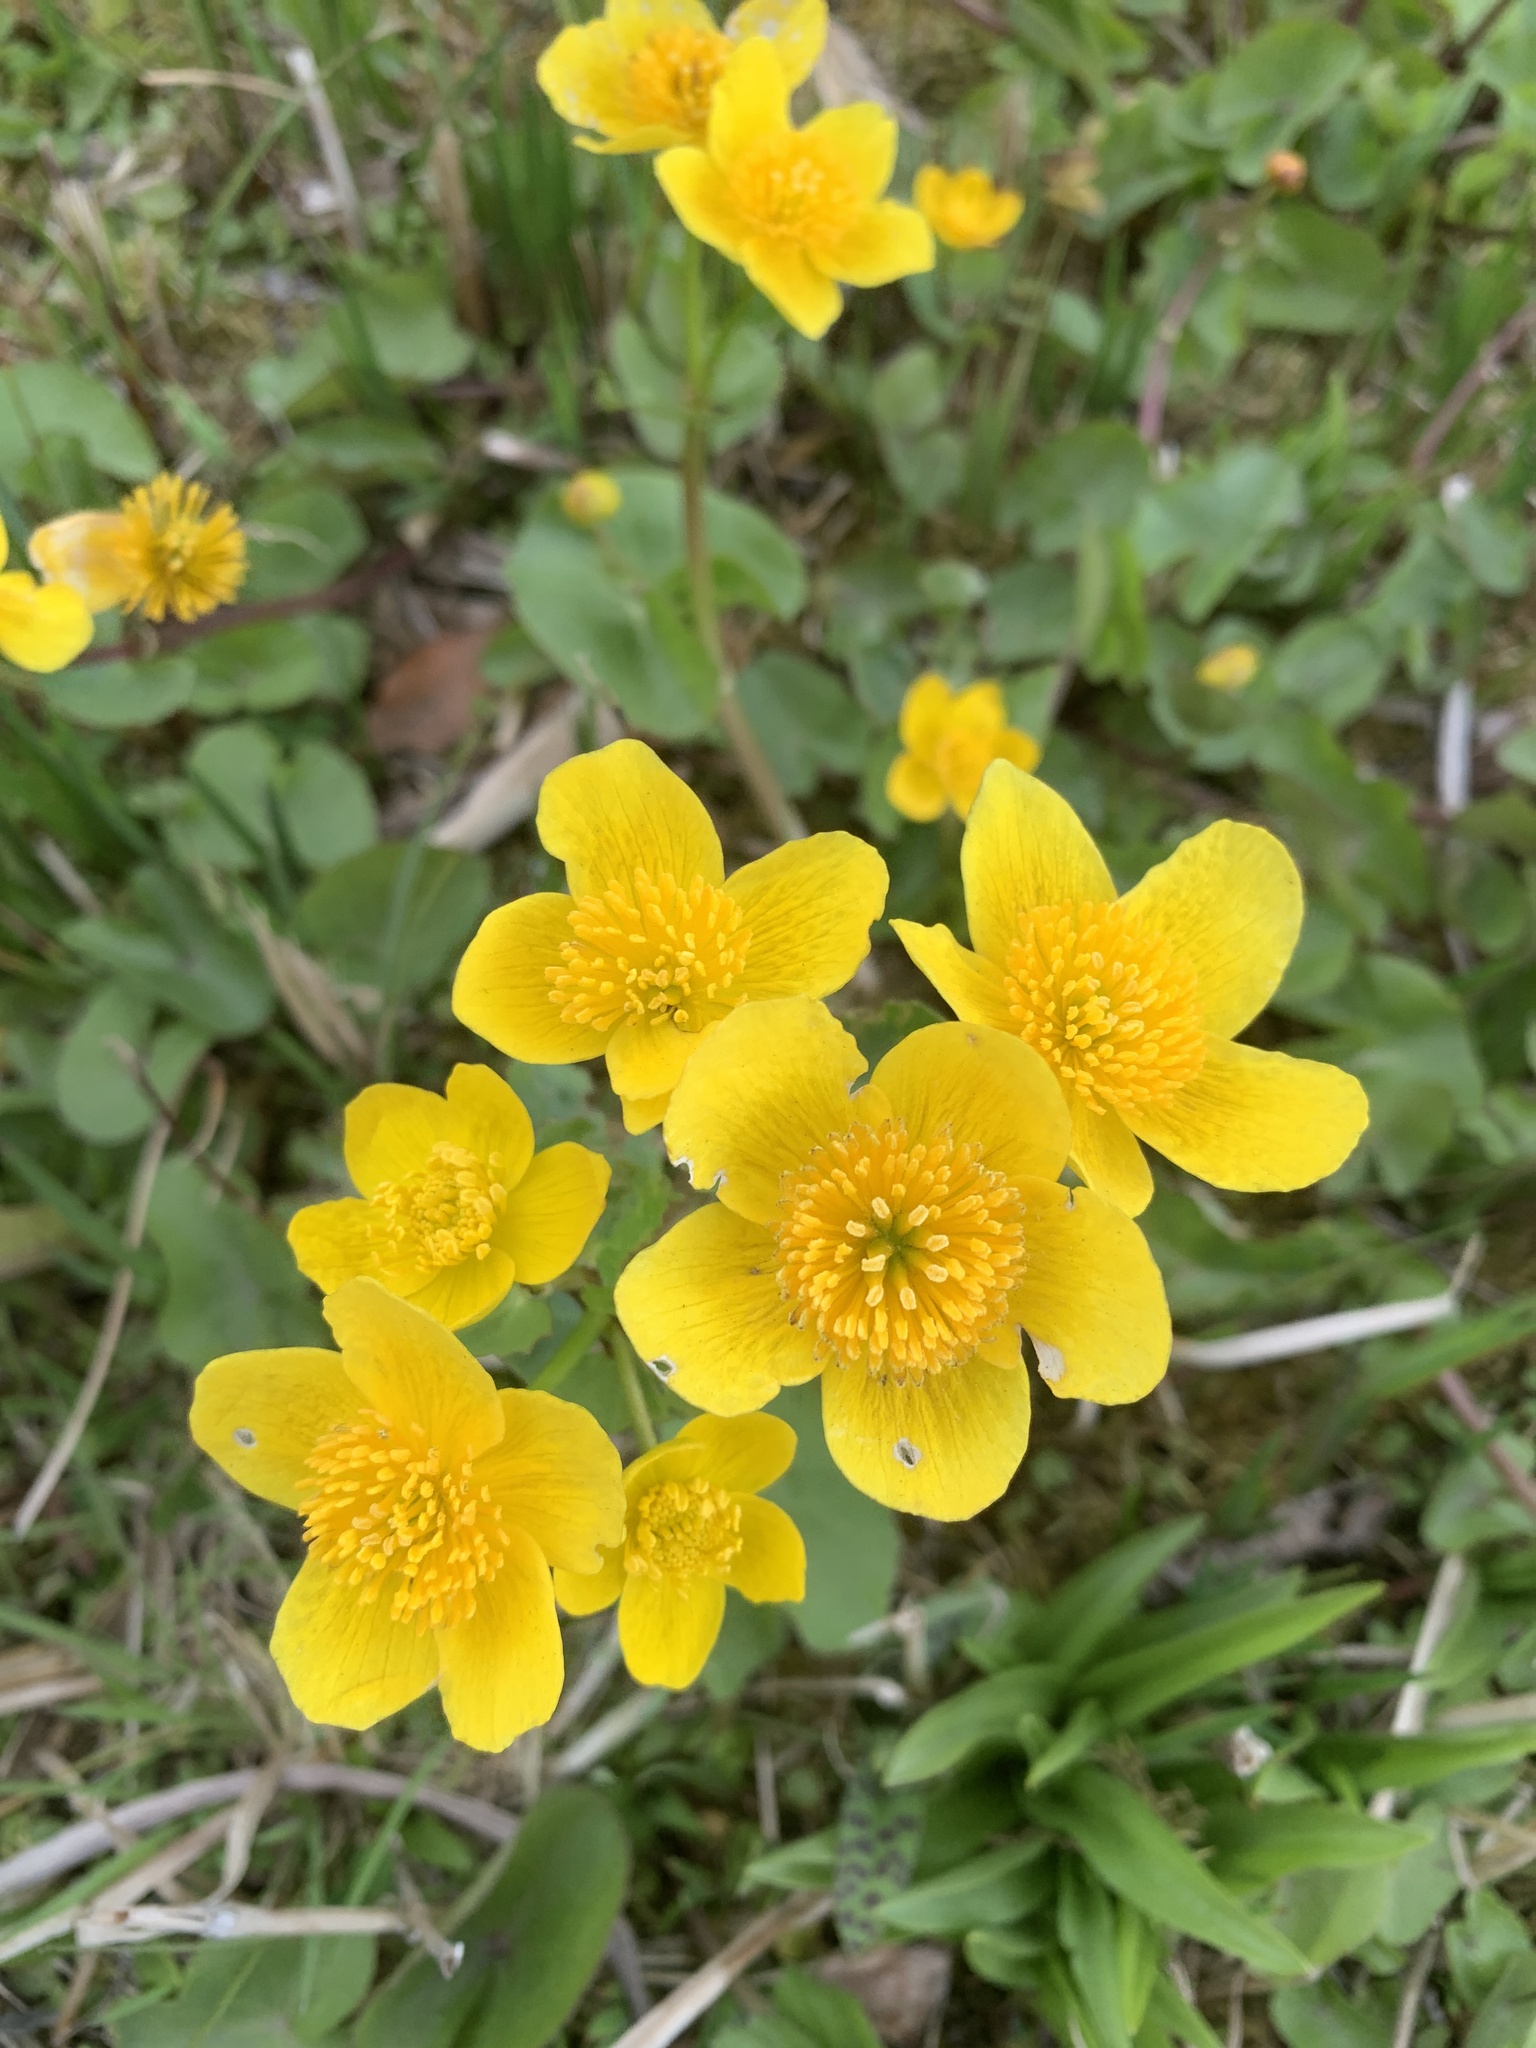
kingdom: Plantae
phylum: Tracheophyta
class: Magnoliopsida
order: Ranunculales
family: Ranunculaceae
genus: Caltha
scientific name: Caltha palustris
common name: Marsh marigold
